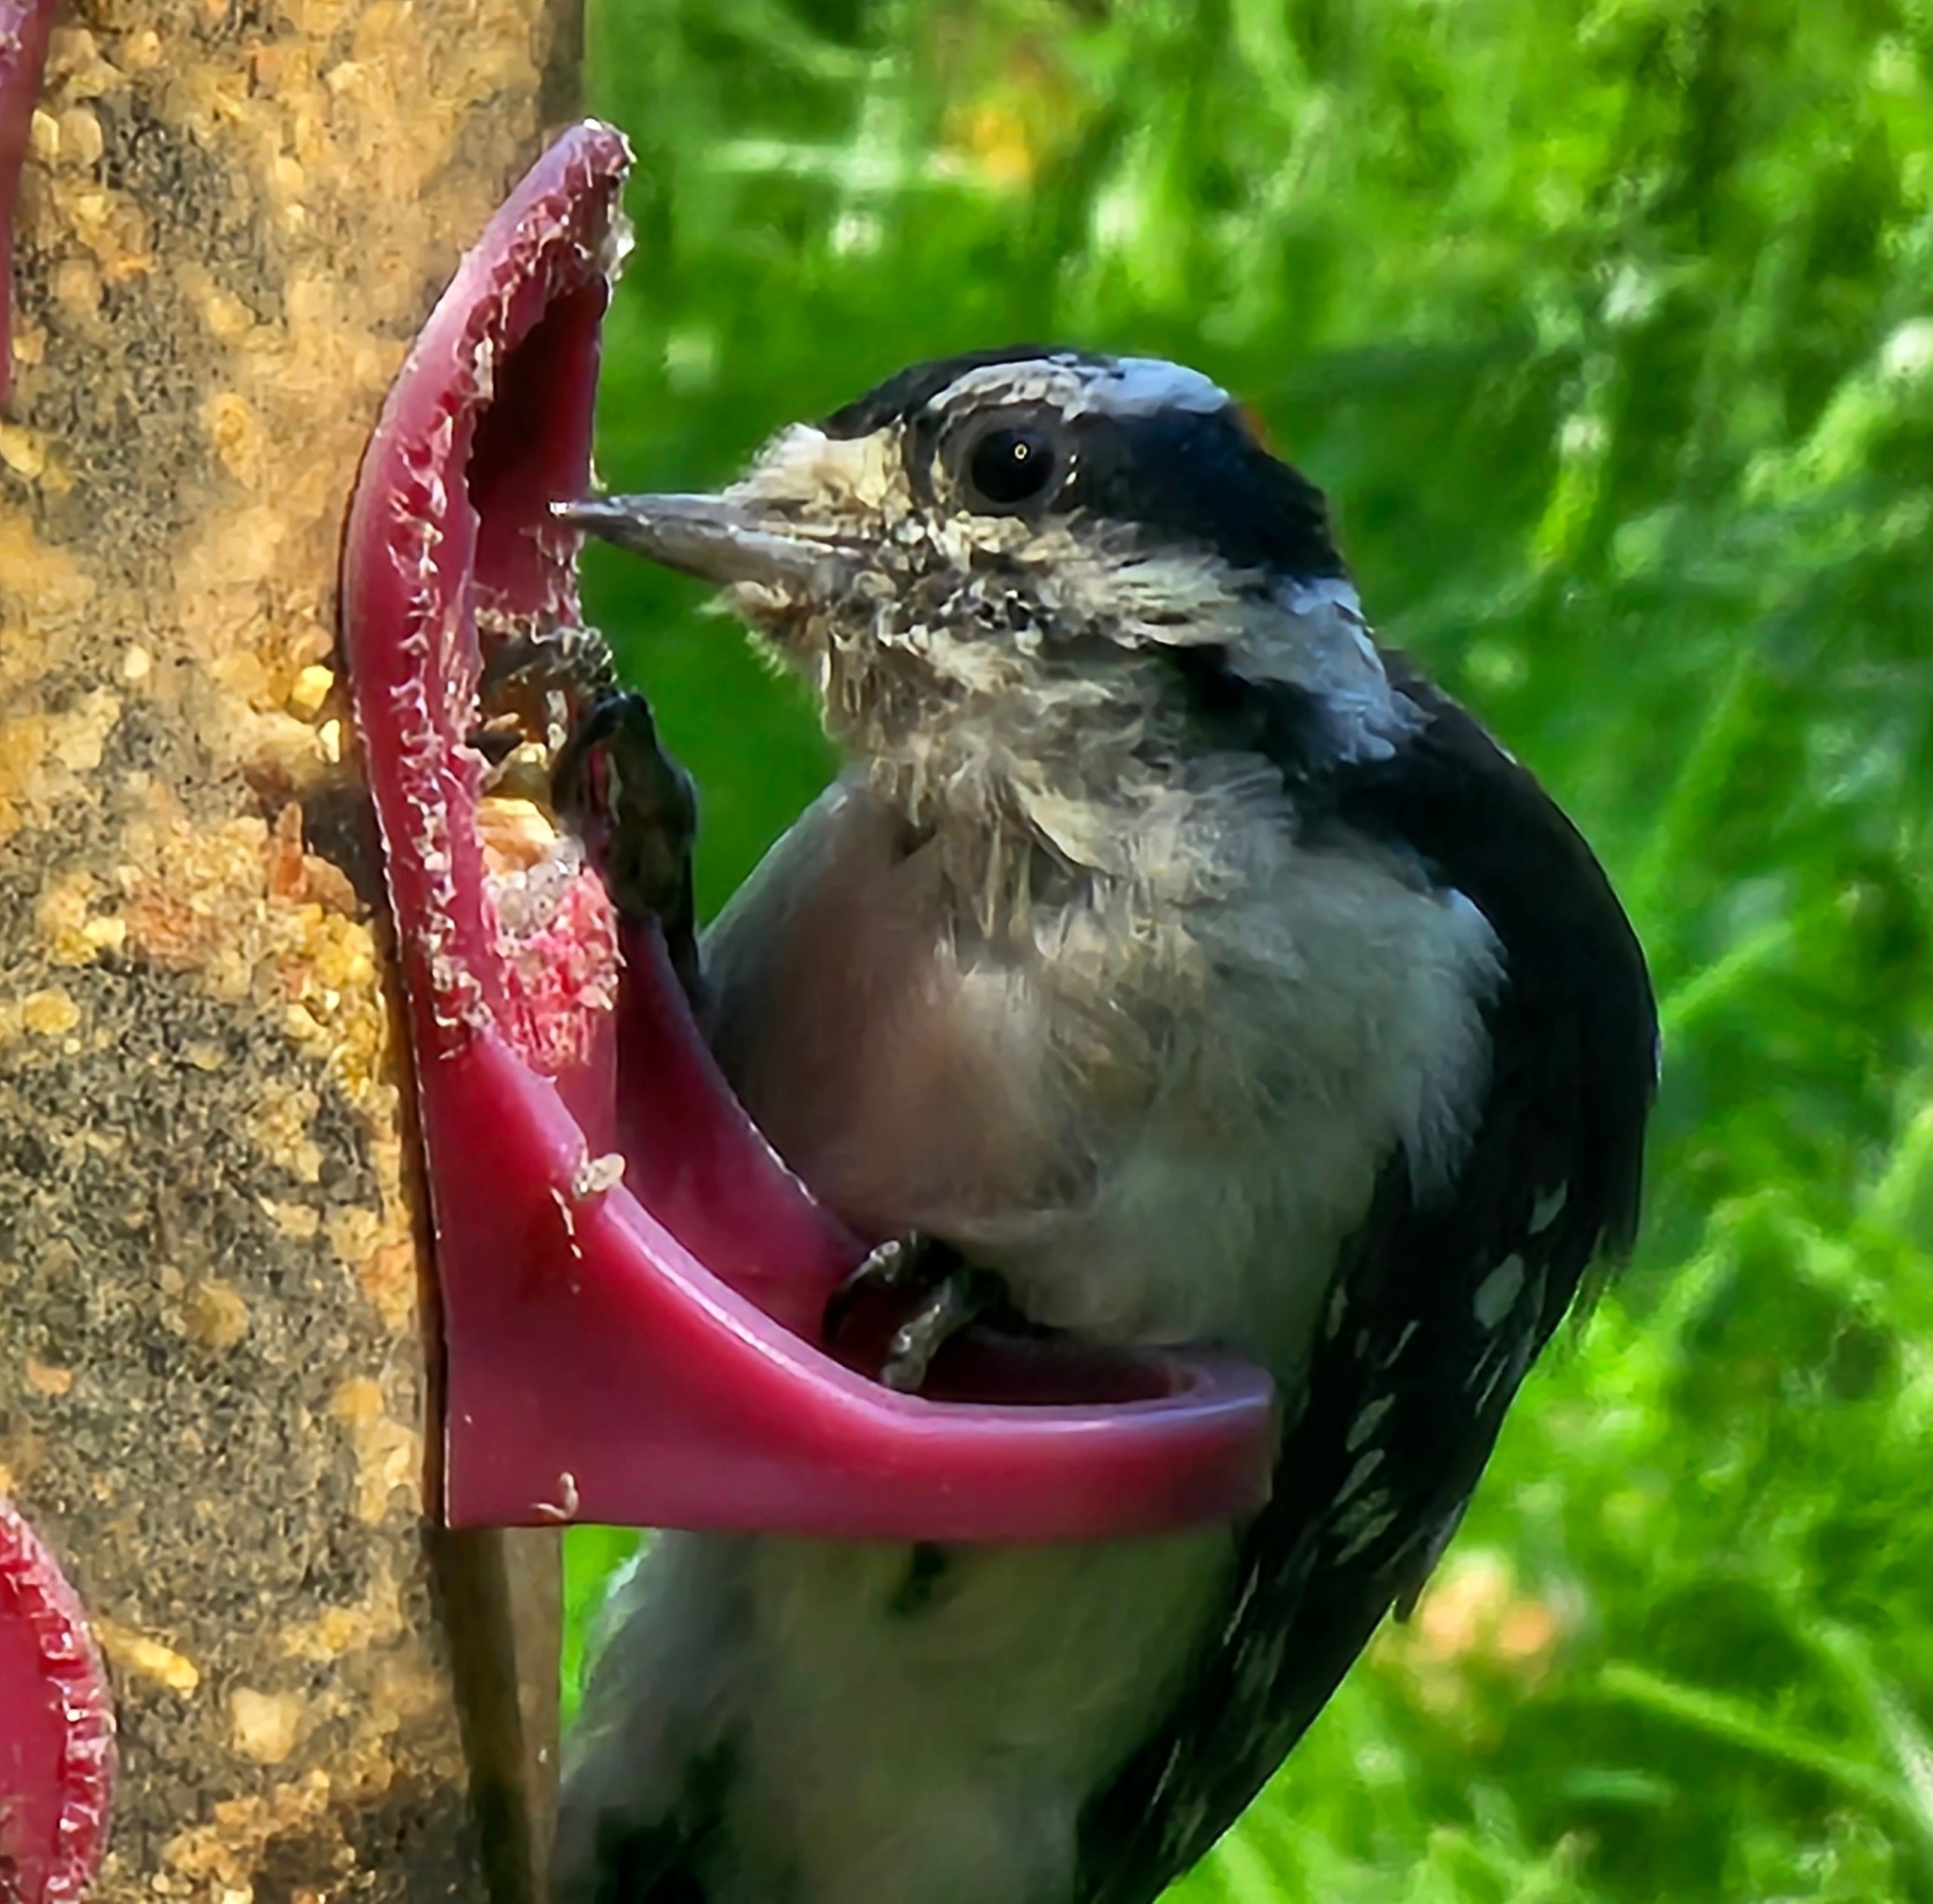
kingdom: Animalia
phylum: Chordata
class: Aves
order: Piciformes
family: Picidae
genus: Dryobates
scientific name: Dryobates pubescens
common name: Downy woodpecker
